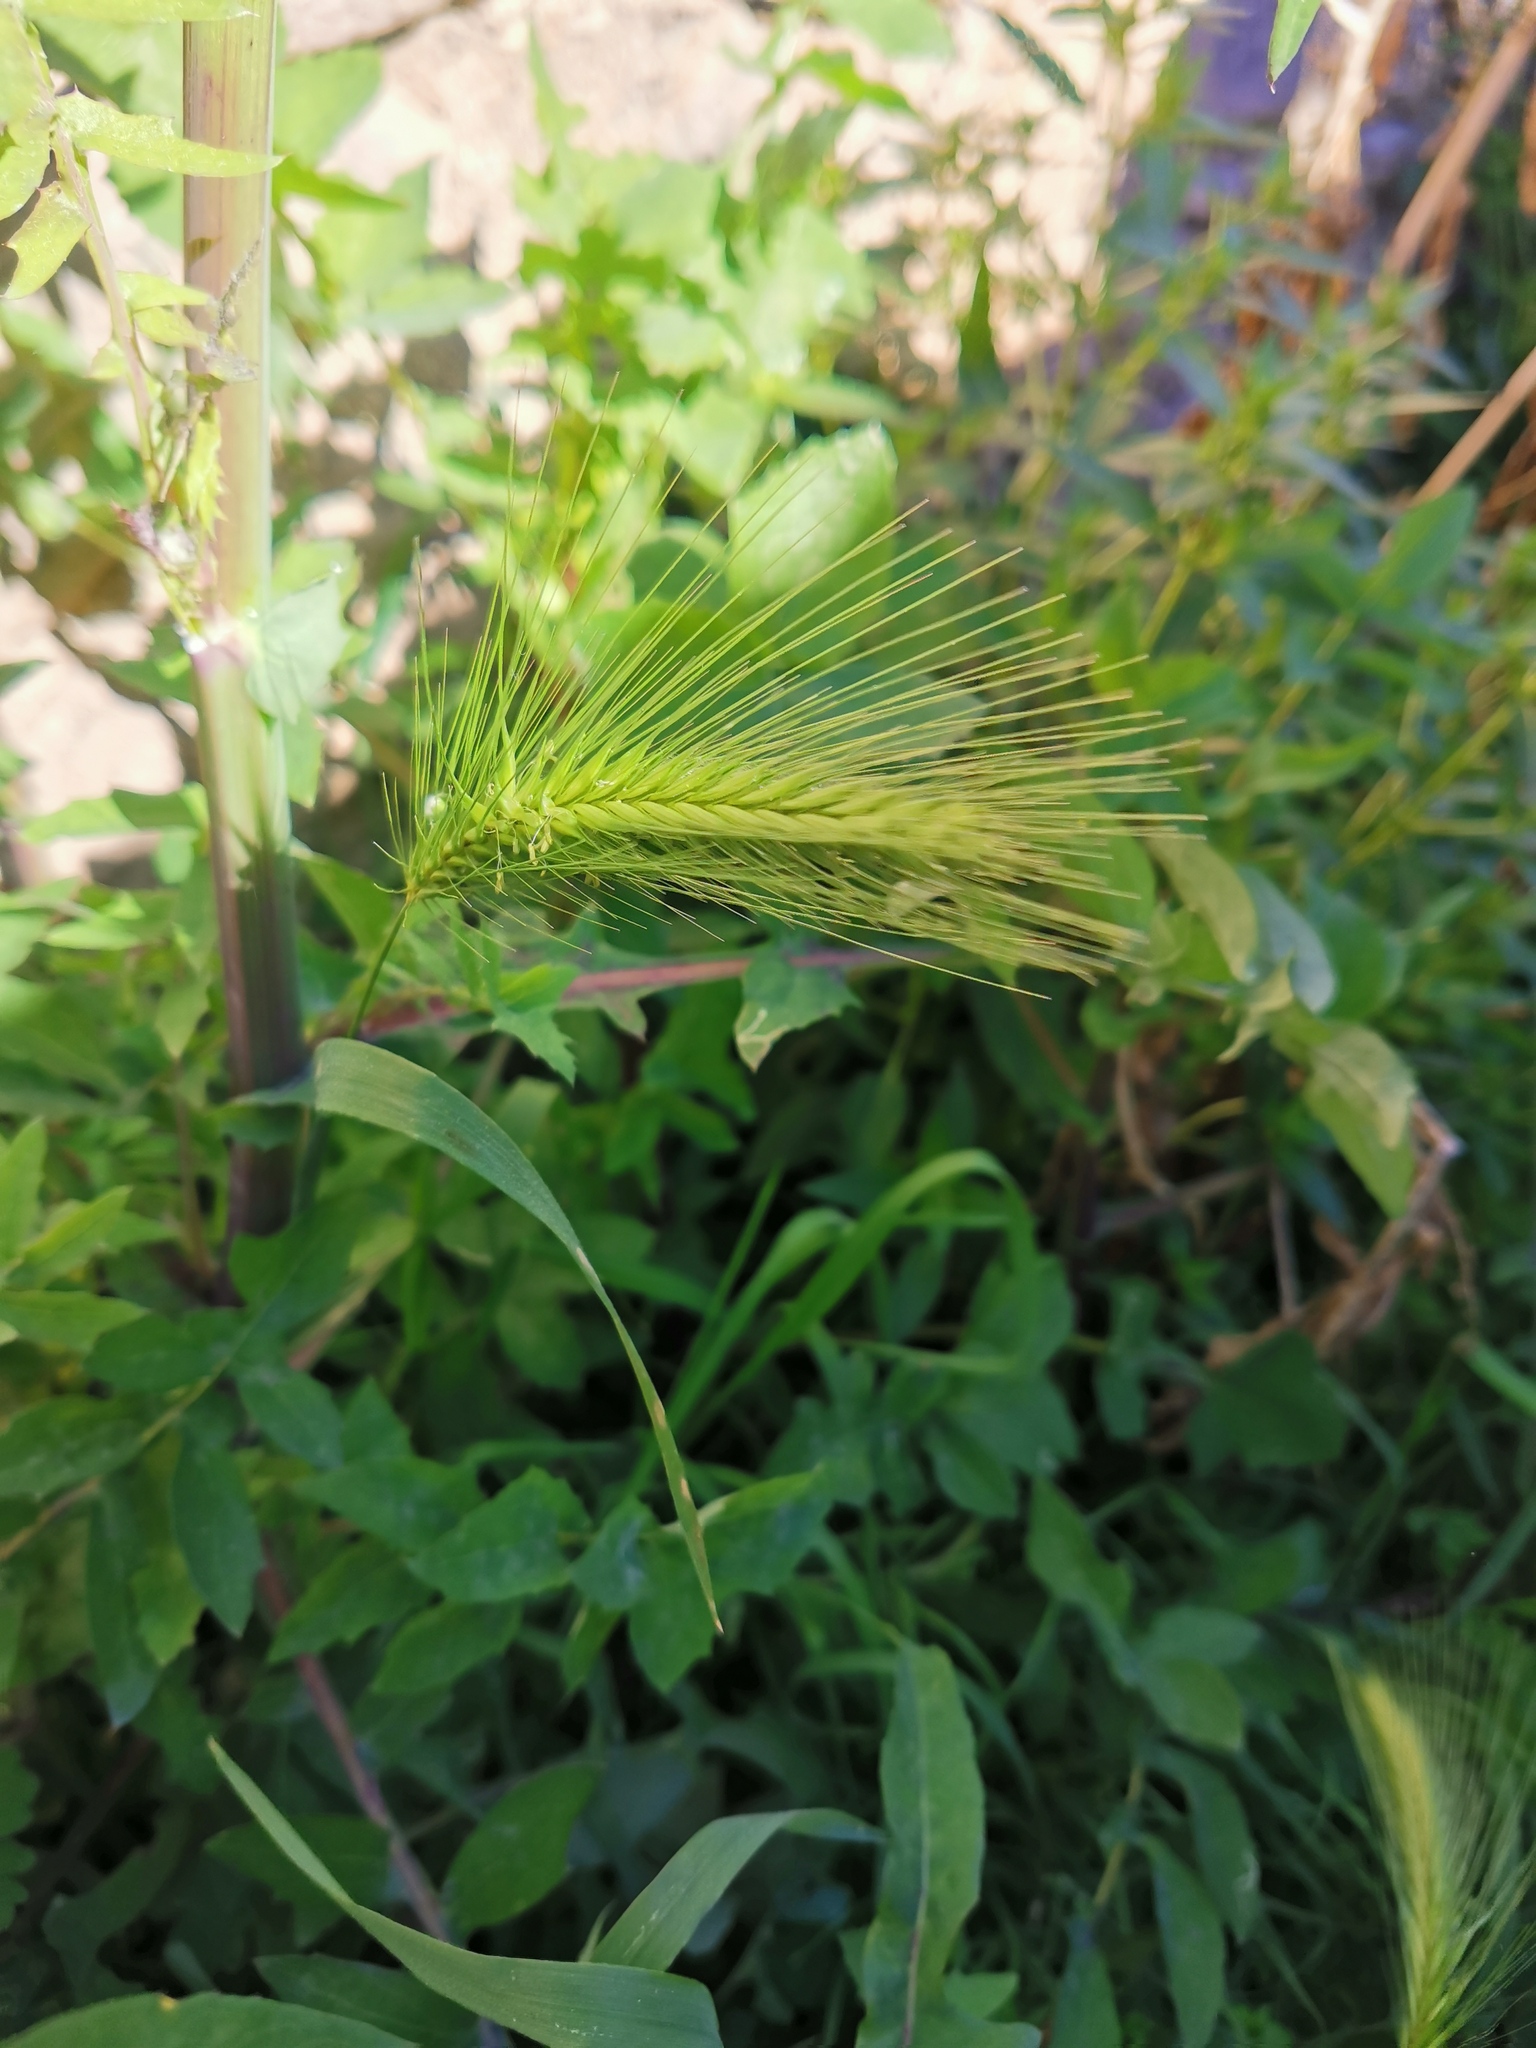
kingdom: Plantae
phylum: Tracheophyta
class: Liliopsida
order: Poales
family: Poaceae
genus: Hordeum
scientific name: Hordeum murinum
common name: Wall barley
